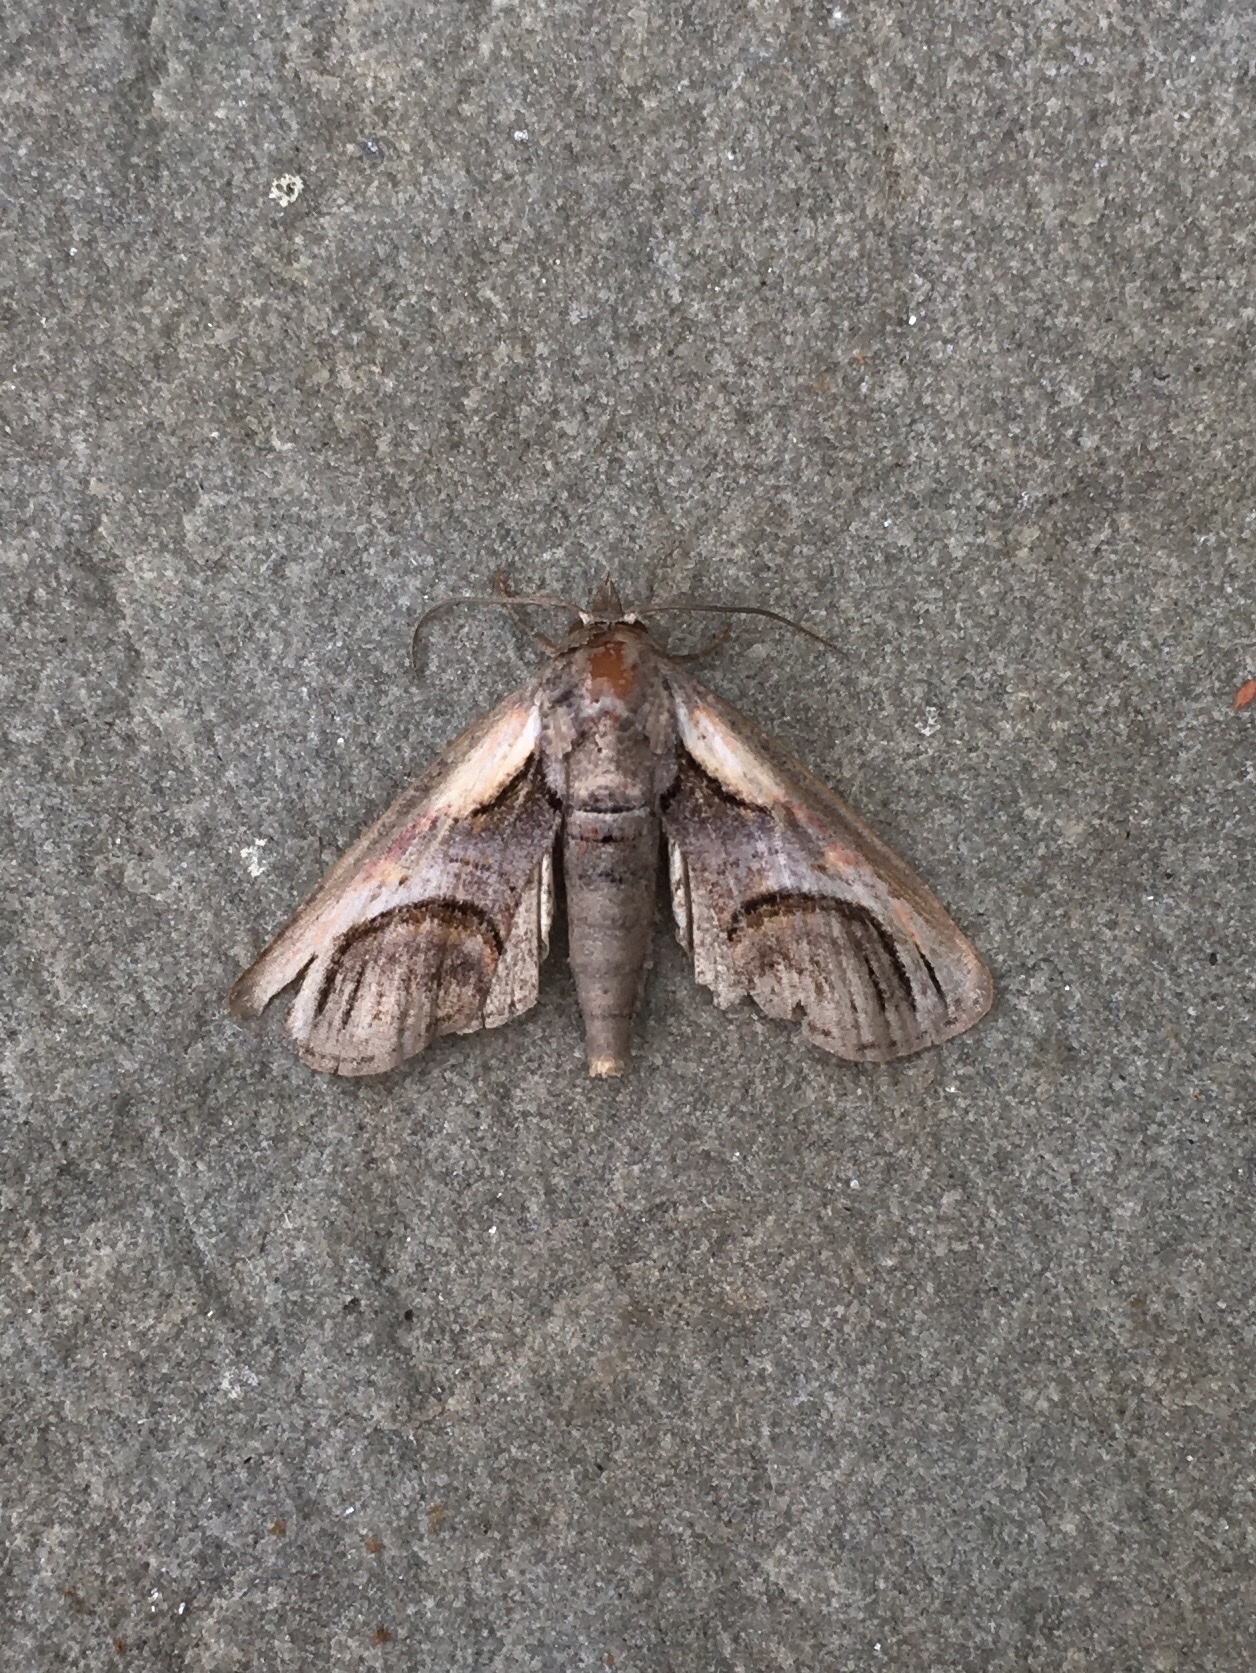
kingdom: Animalia
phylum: Arthropoda
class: Insecta
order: Lepidoptera
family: Euteliidae
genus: Paectes
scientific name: Paectes oculatrix
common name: Eyed paectes moth
